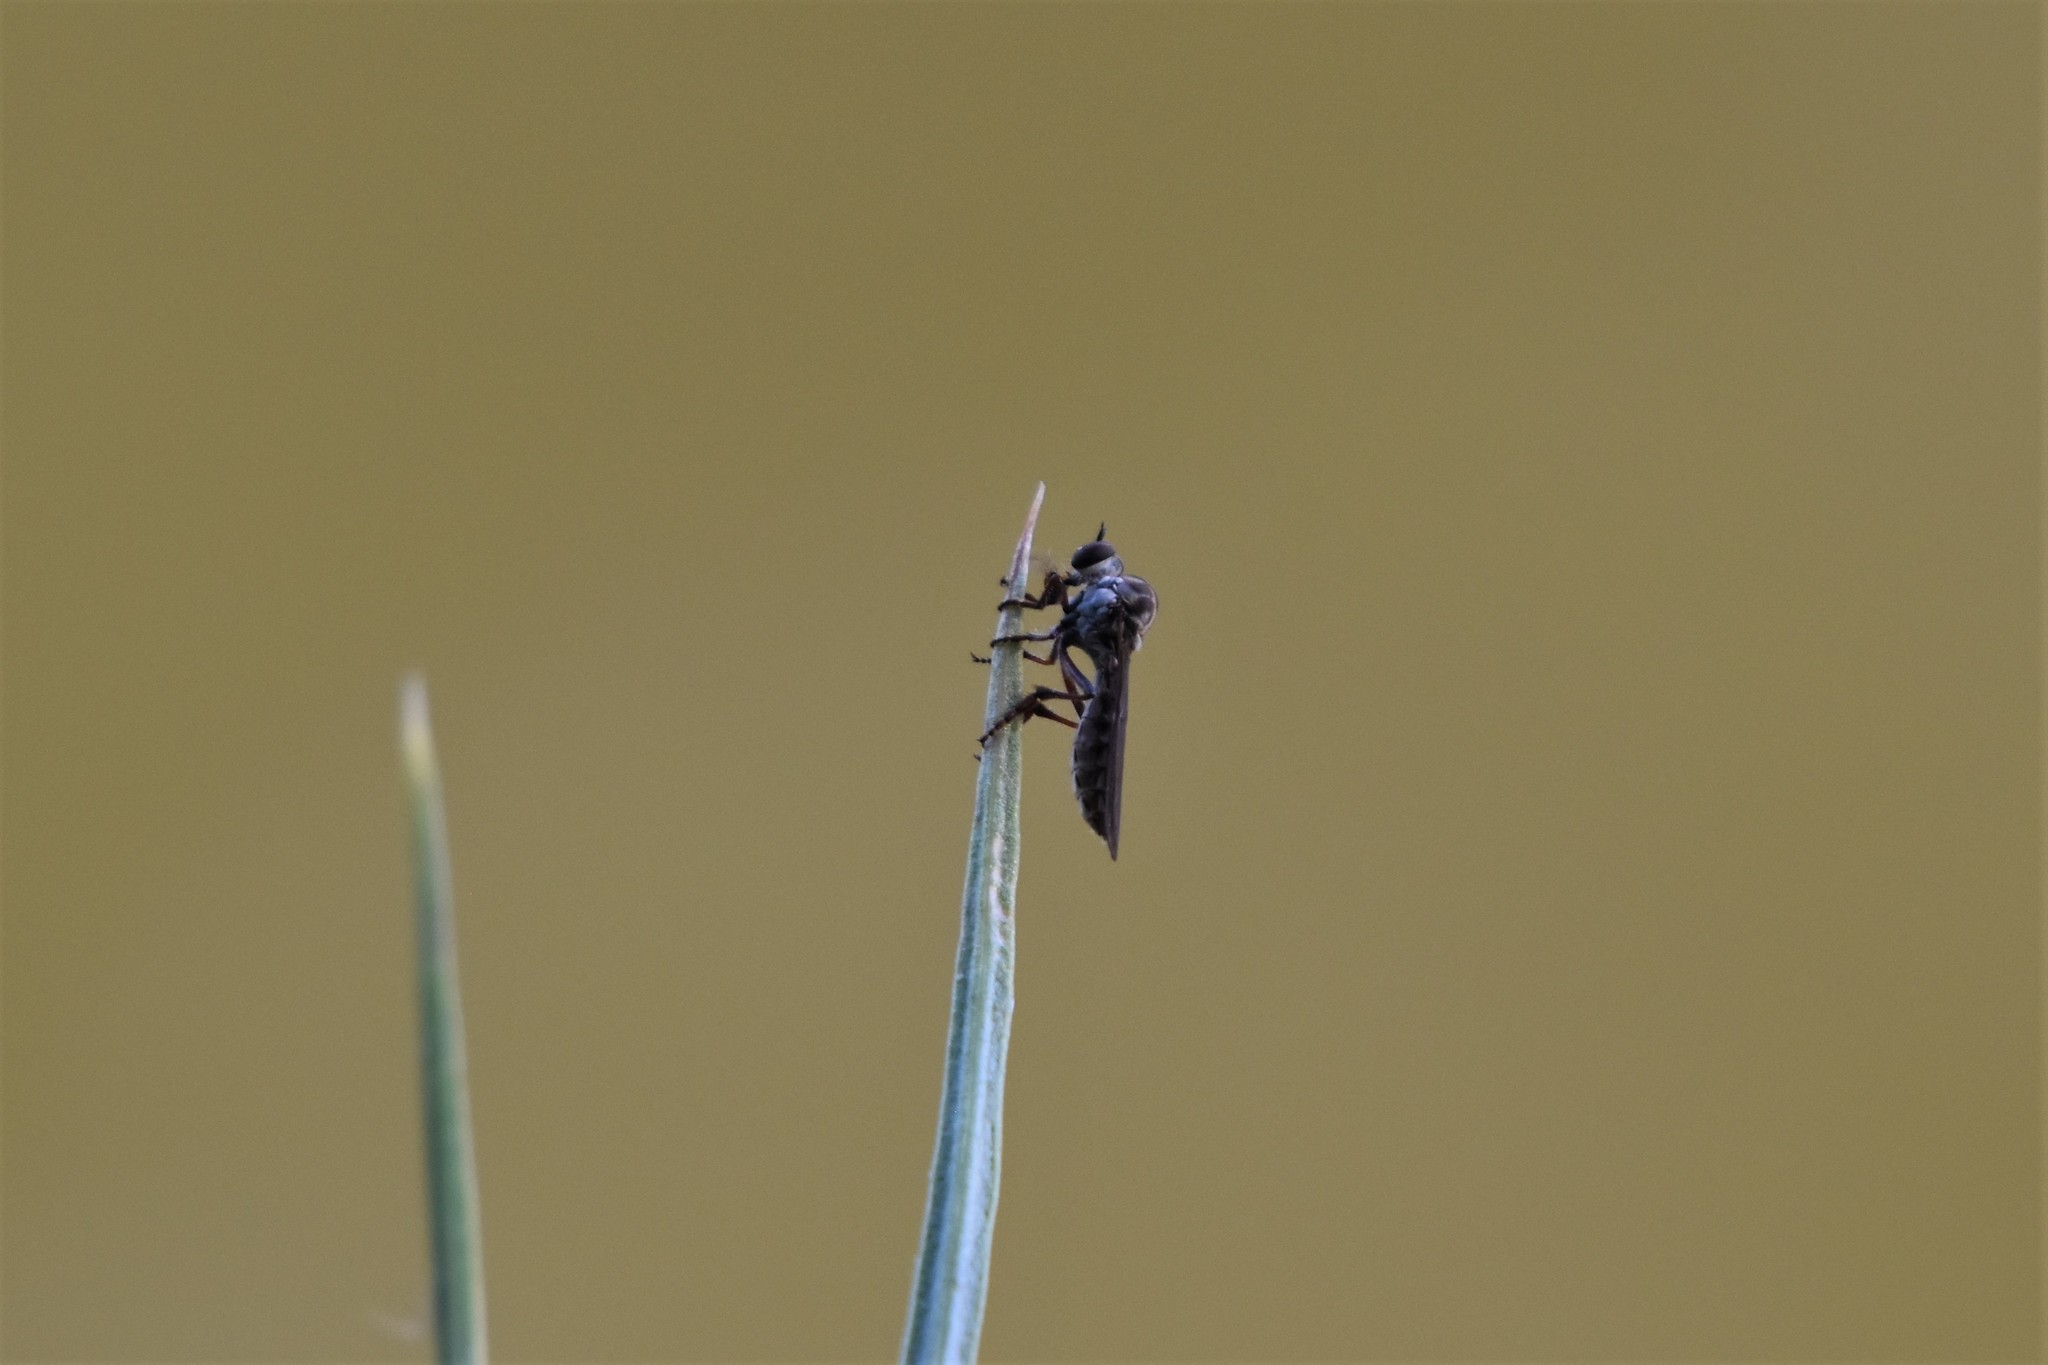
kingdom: Animalia
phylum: Arthropoda
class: Insecta
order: Diptera
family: Asilidae
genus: Holcocephala
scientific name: Holcocephala calva
